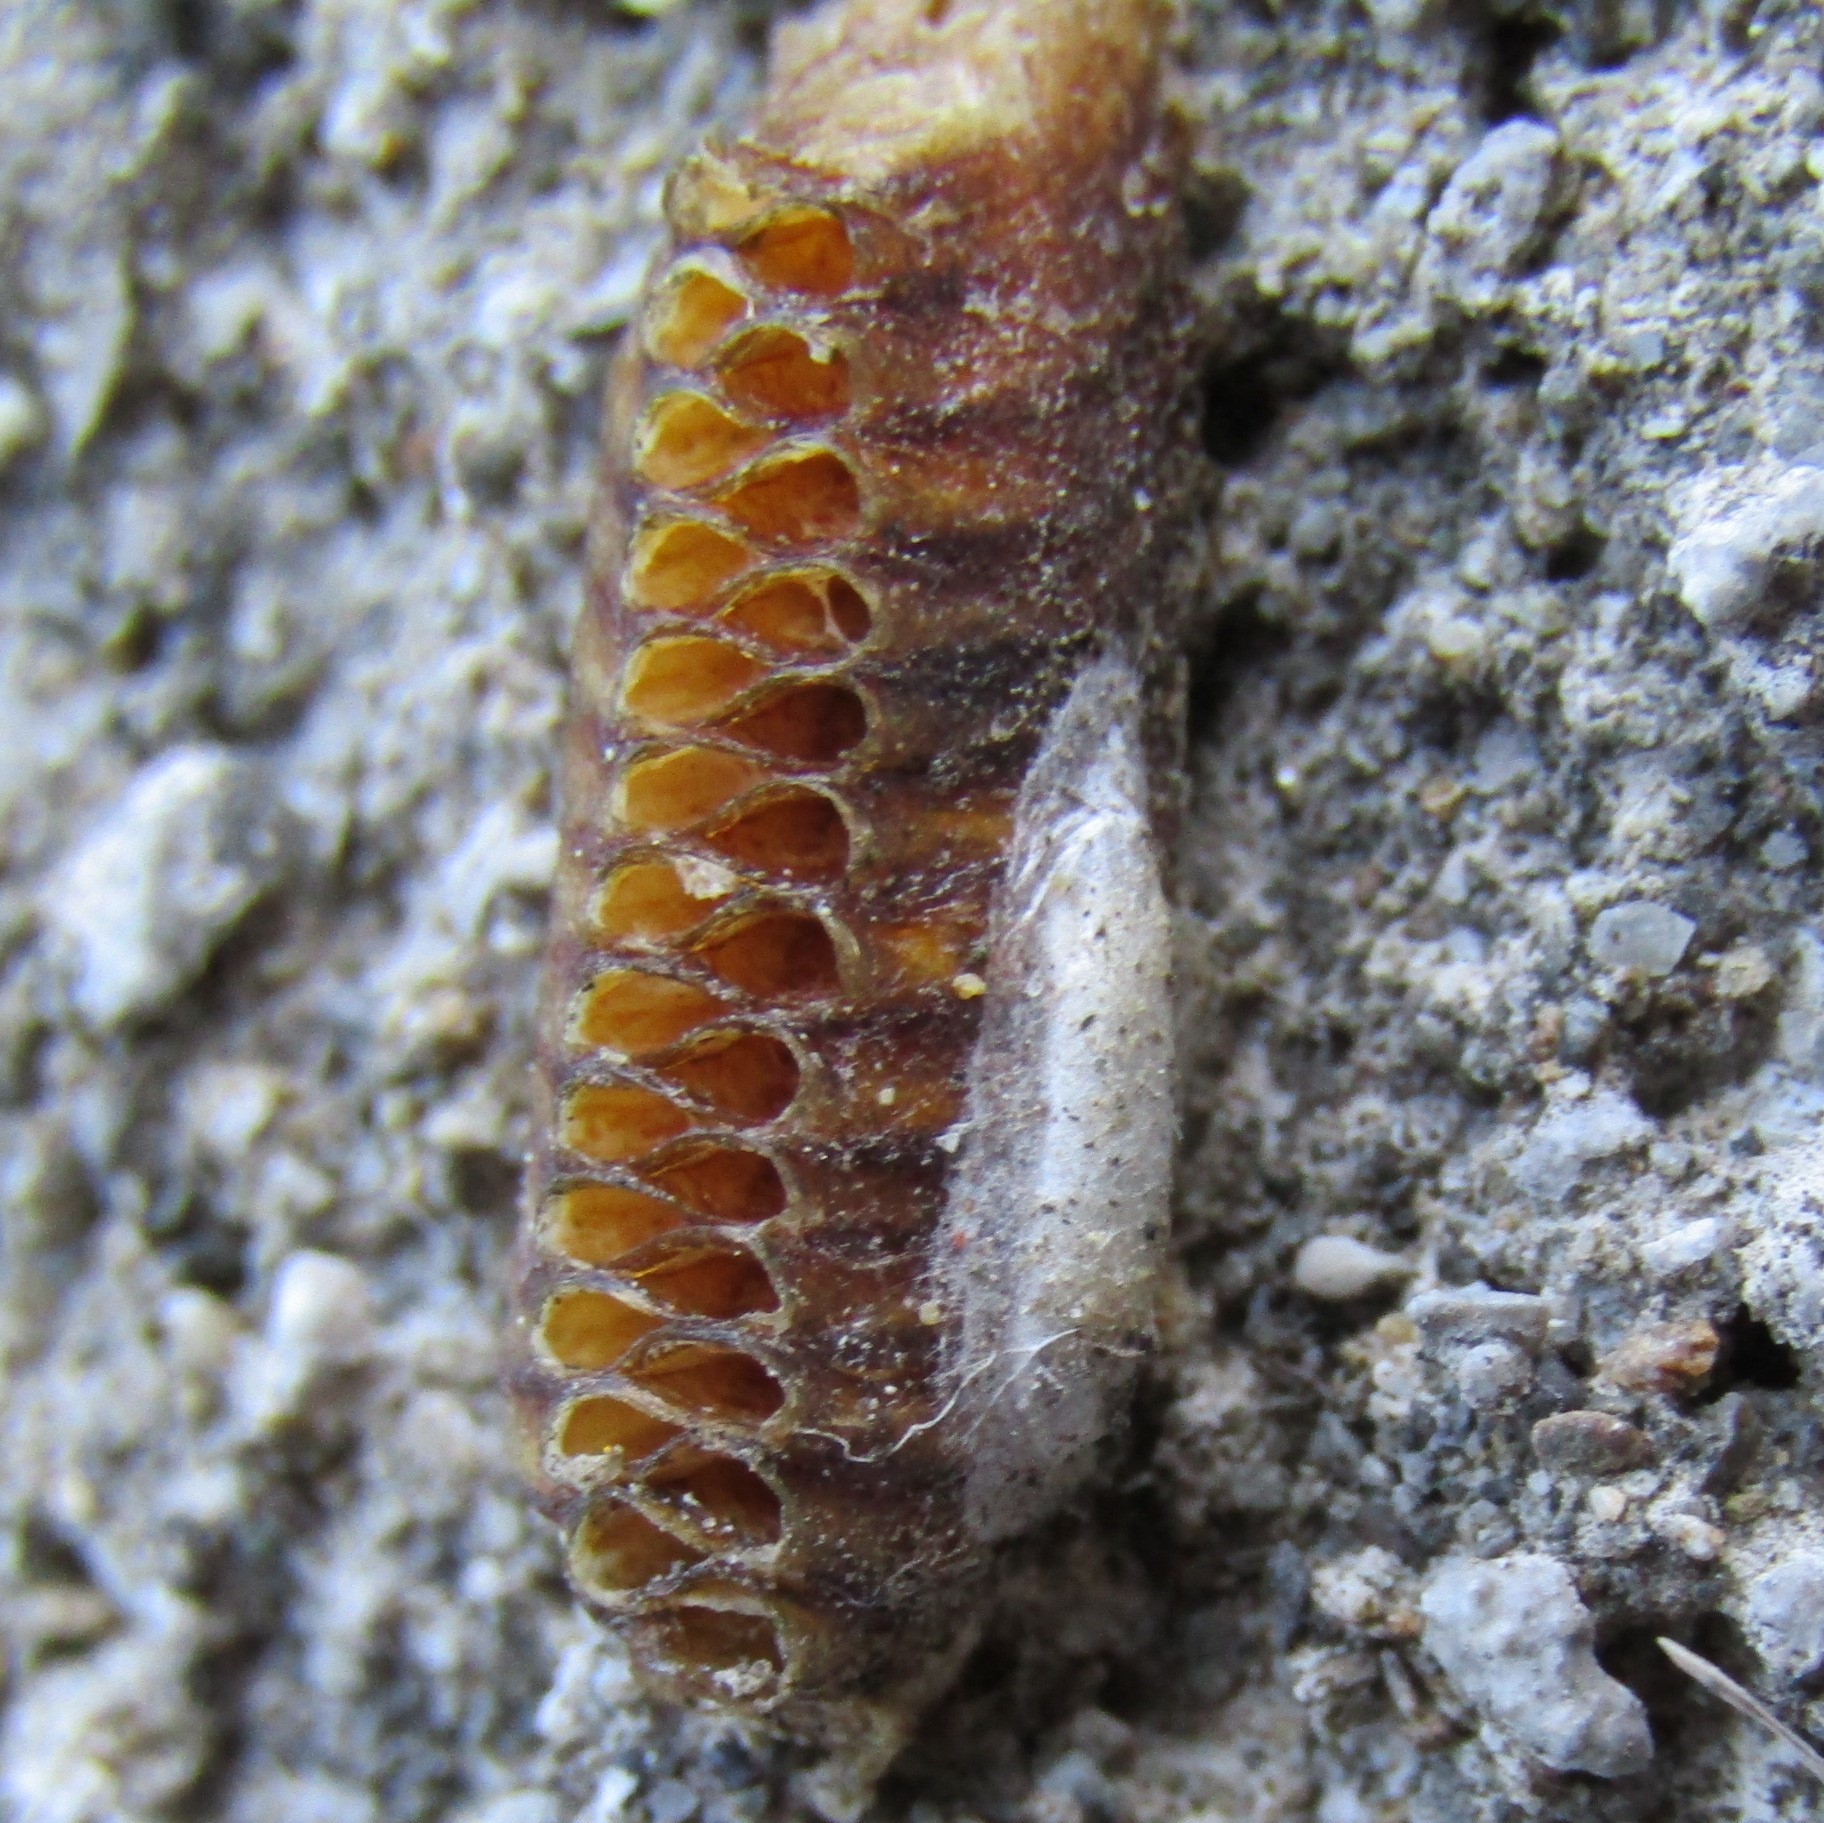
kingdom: Animalia
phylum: Arthropoda
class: Insecta
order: Mantodea
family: Mantidae
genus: Orthodera
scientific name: Orthodera novaezealandiae
